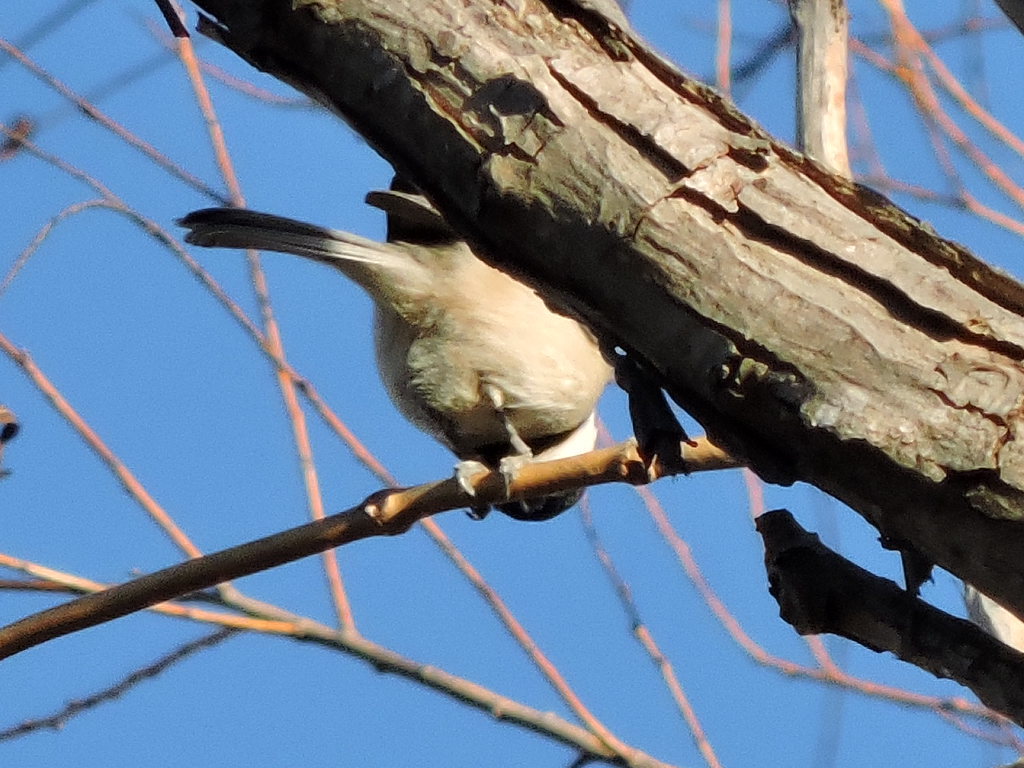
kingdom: Animalia
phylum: Chordata
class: Aves
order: Passeriformes
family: Paridae
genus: Poecile
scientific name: Poecile carolinensis
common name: Carolina chickadee
